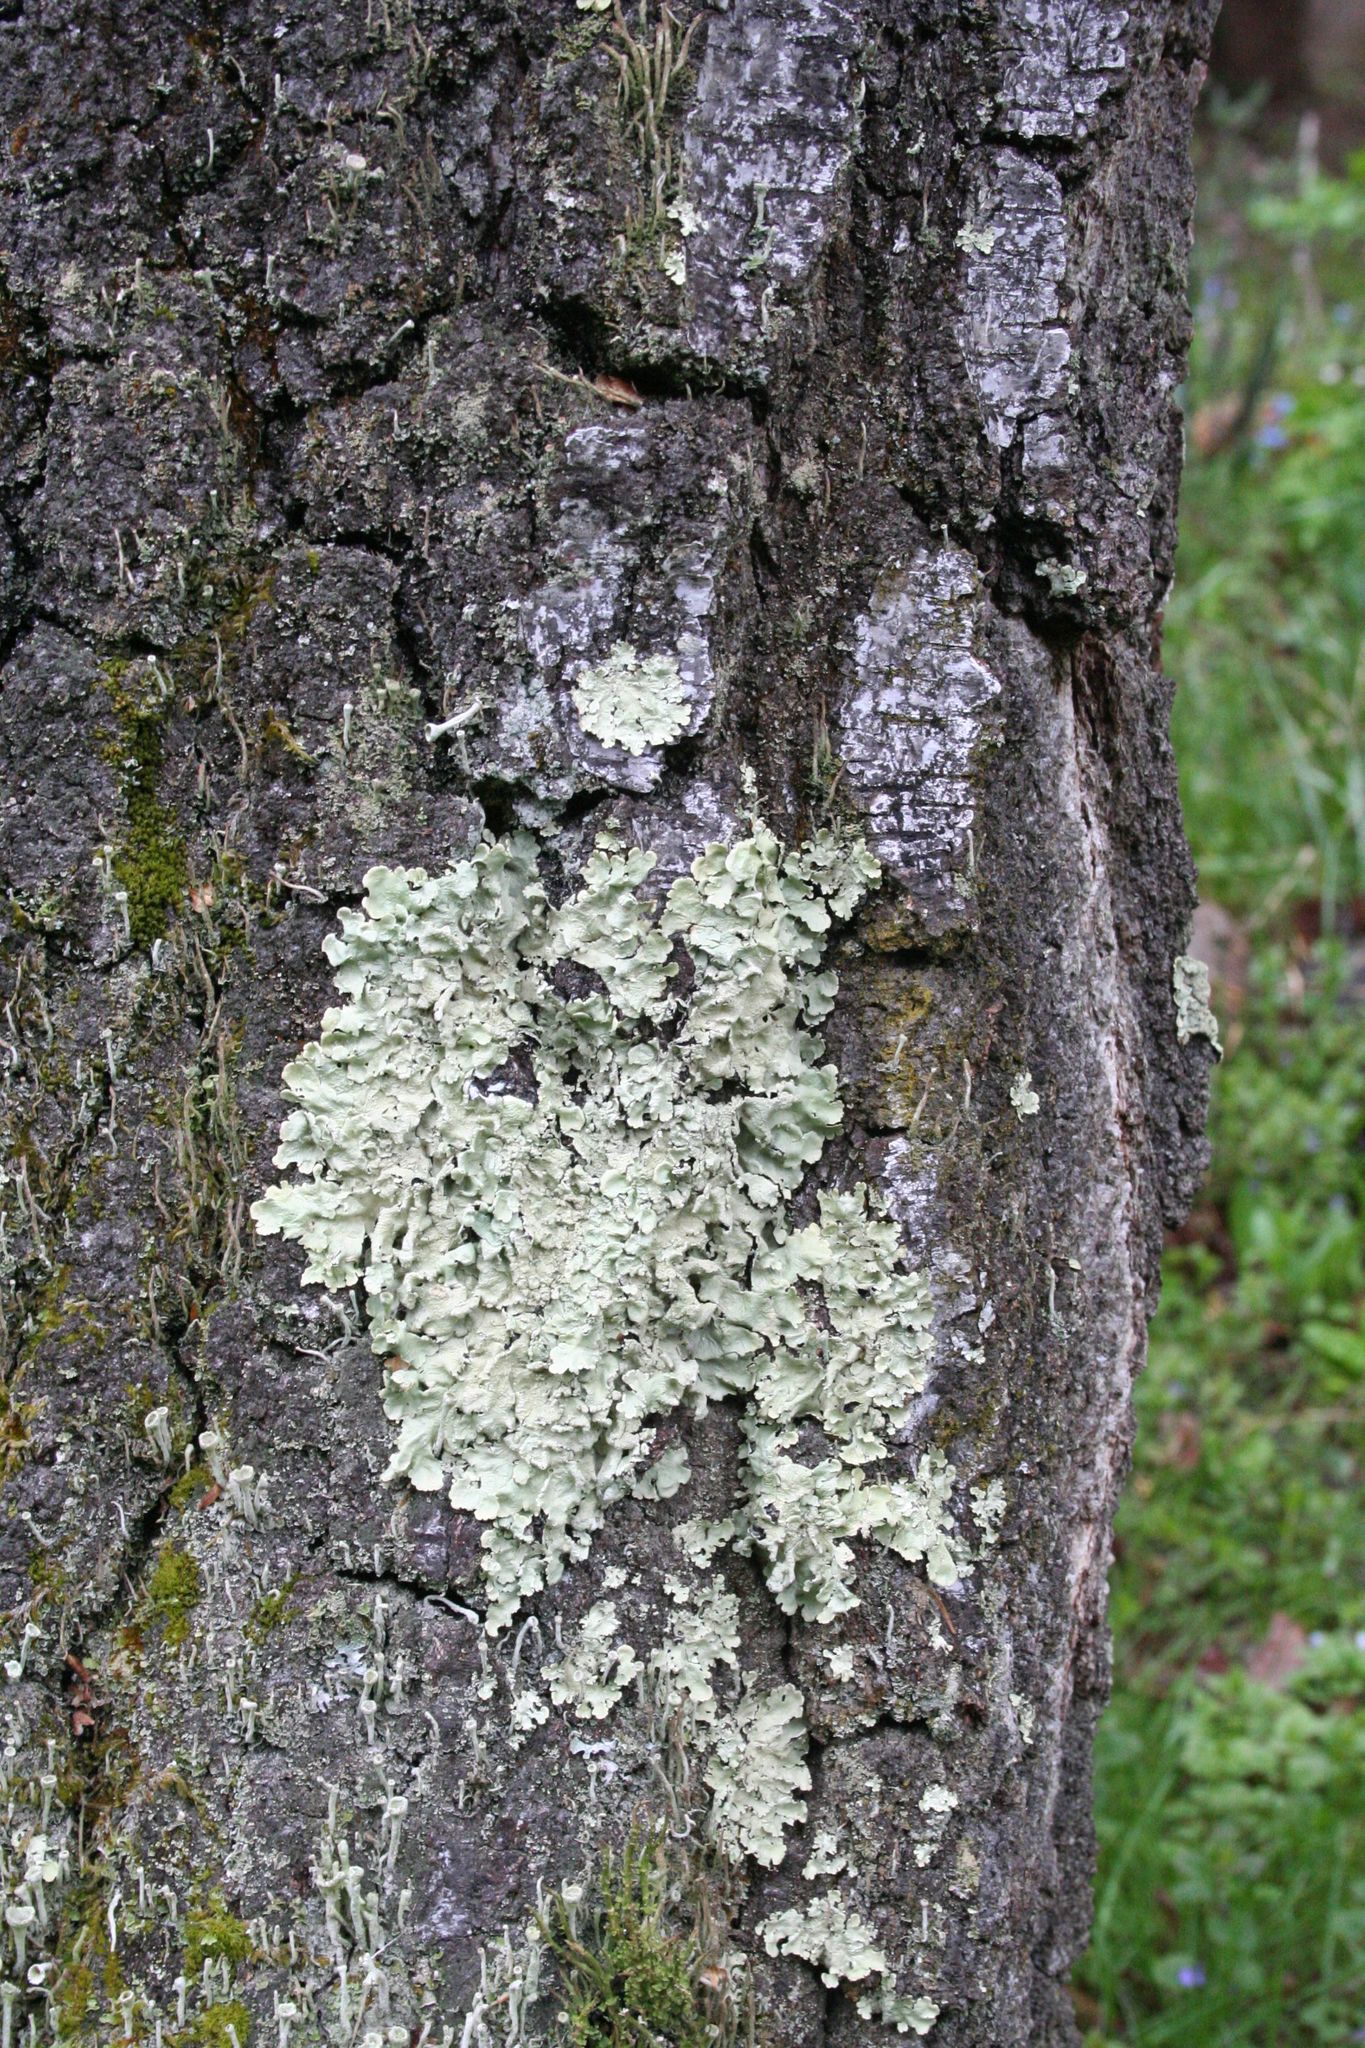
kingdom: Fungi
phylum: Ascomycota
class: Lecanoromycetes
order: Lecanorales
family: Parmeliaceae
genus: Flavoparmelia
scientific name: Flavoparmelia caperata
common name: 40-mile per hour lichen
